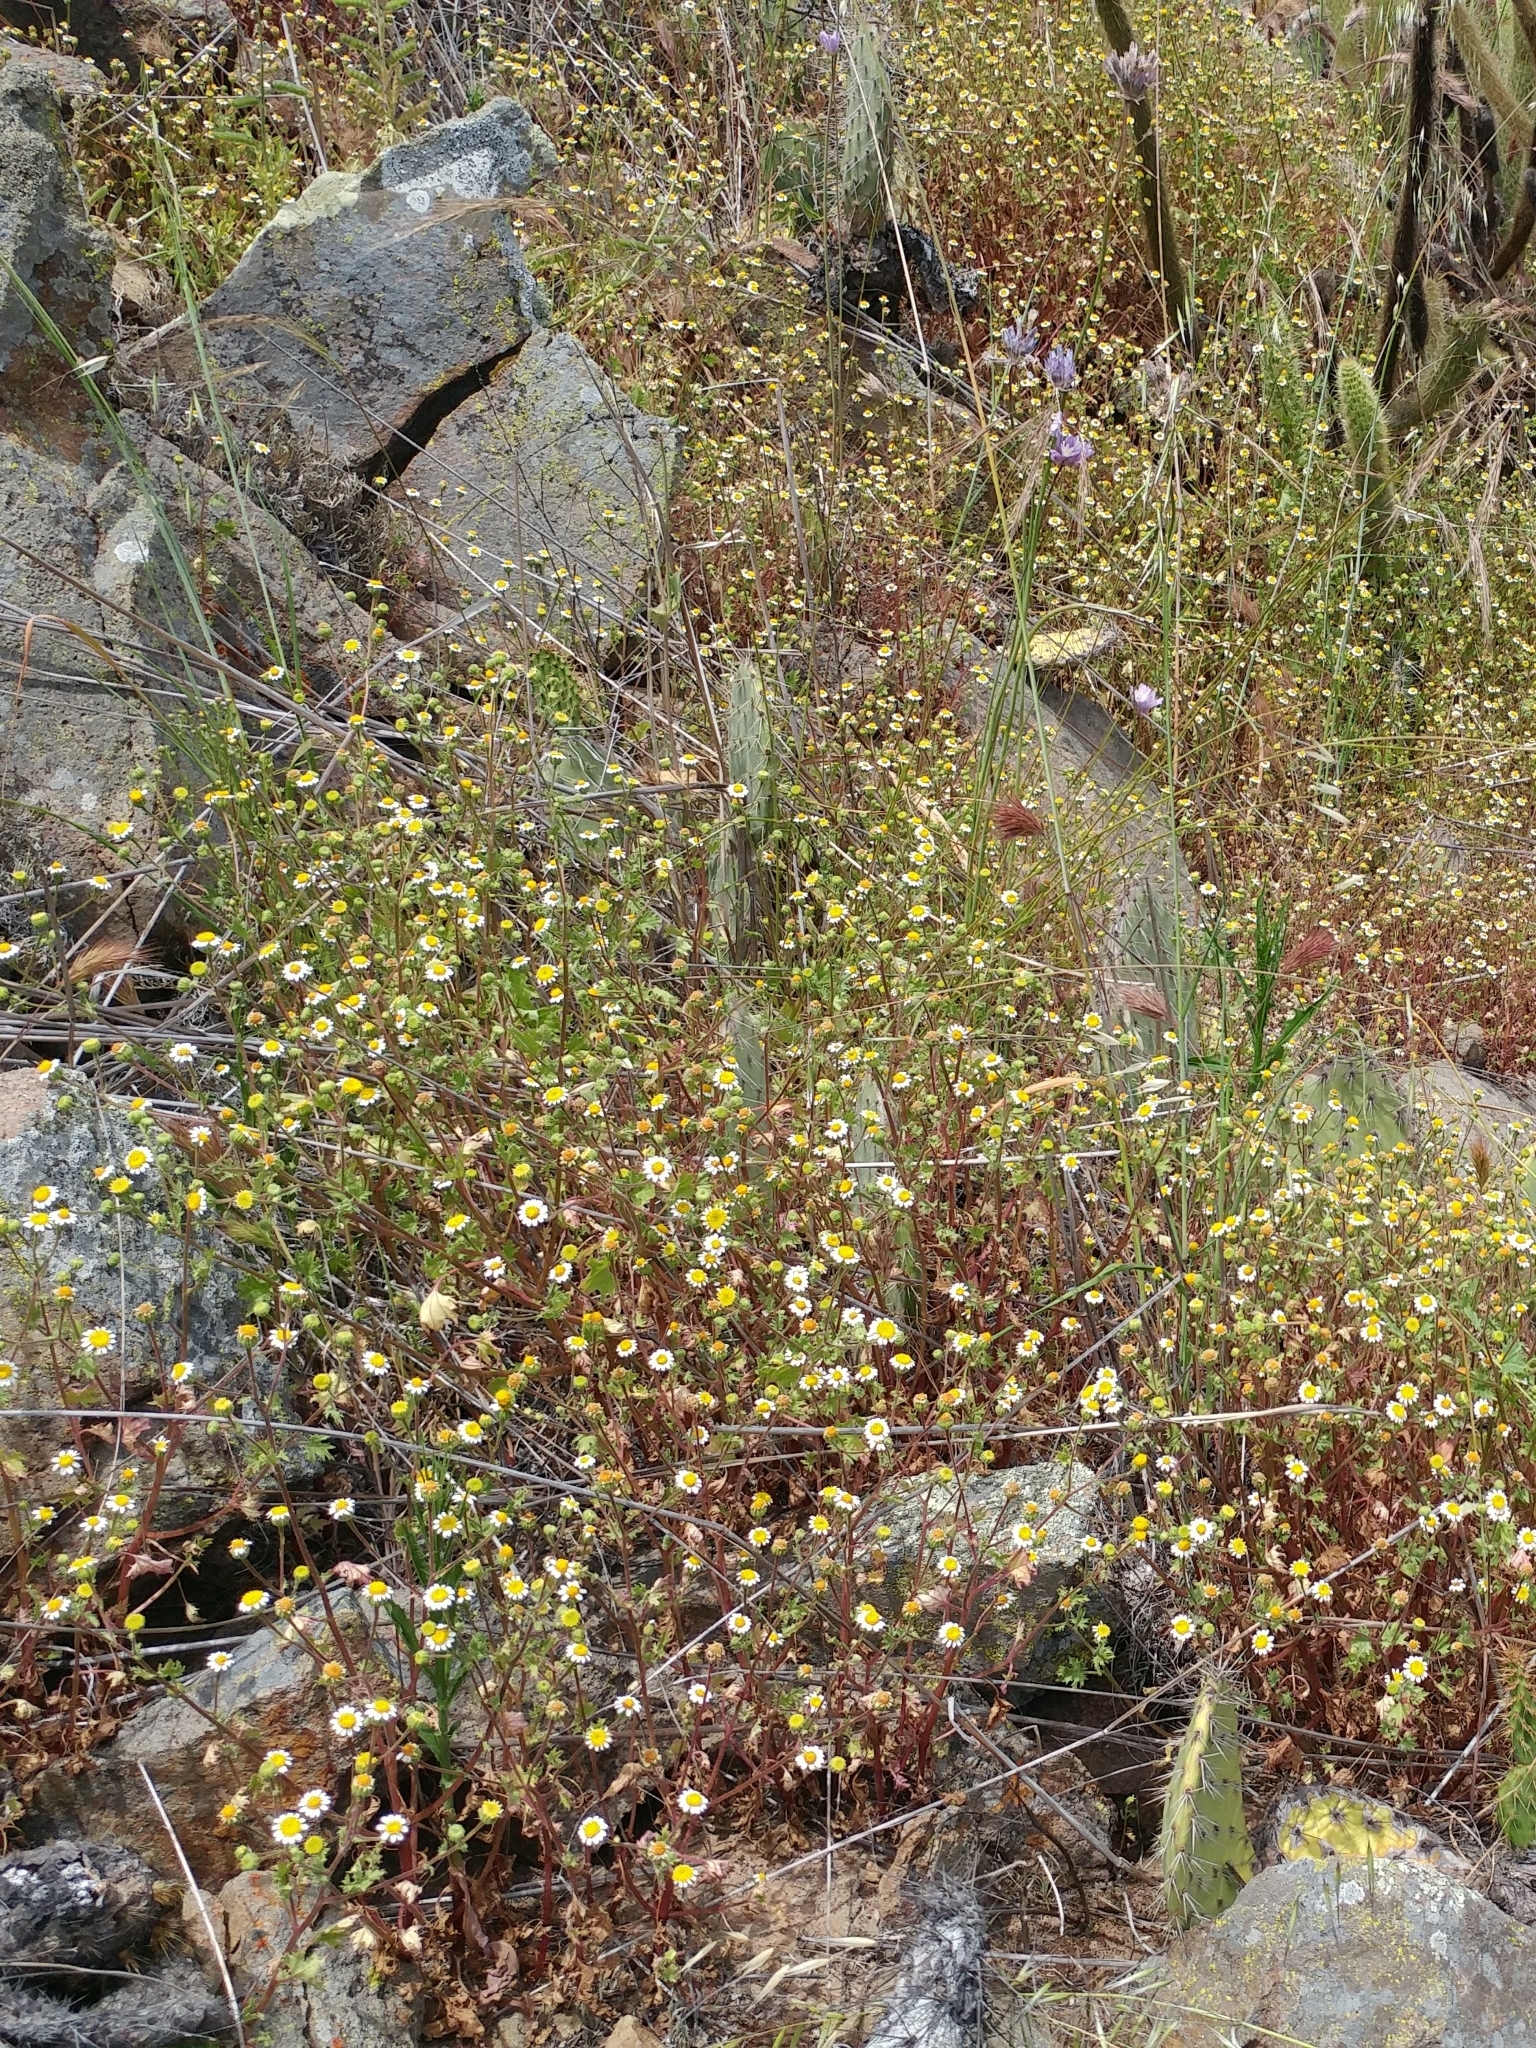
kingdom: Plantae
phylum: Tracheophyta
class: Magnoliopsida
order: Asterales
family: Asteraceae
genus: Laphamia
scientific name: Laphamia emoryi
